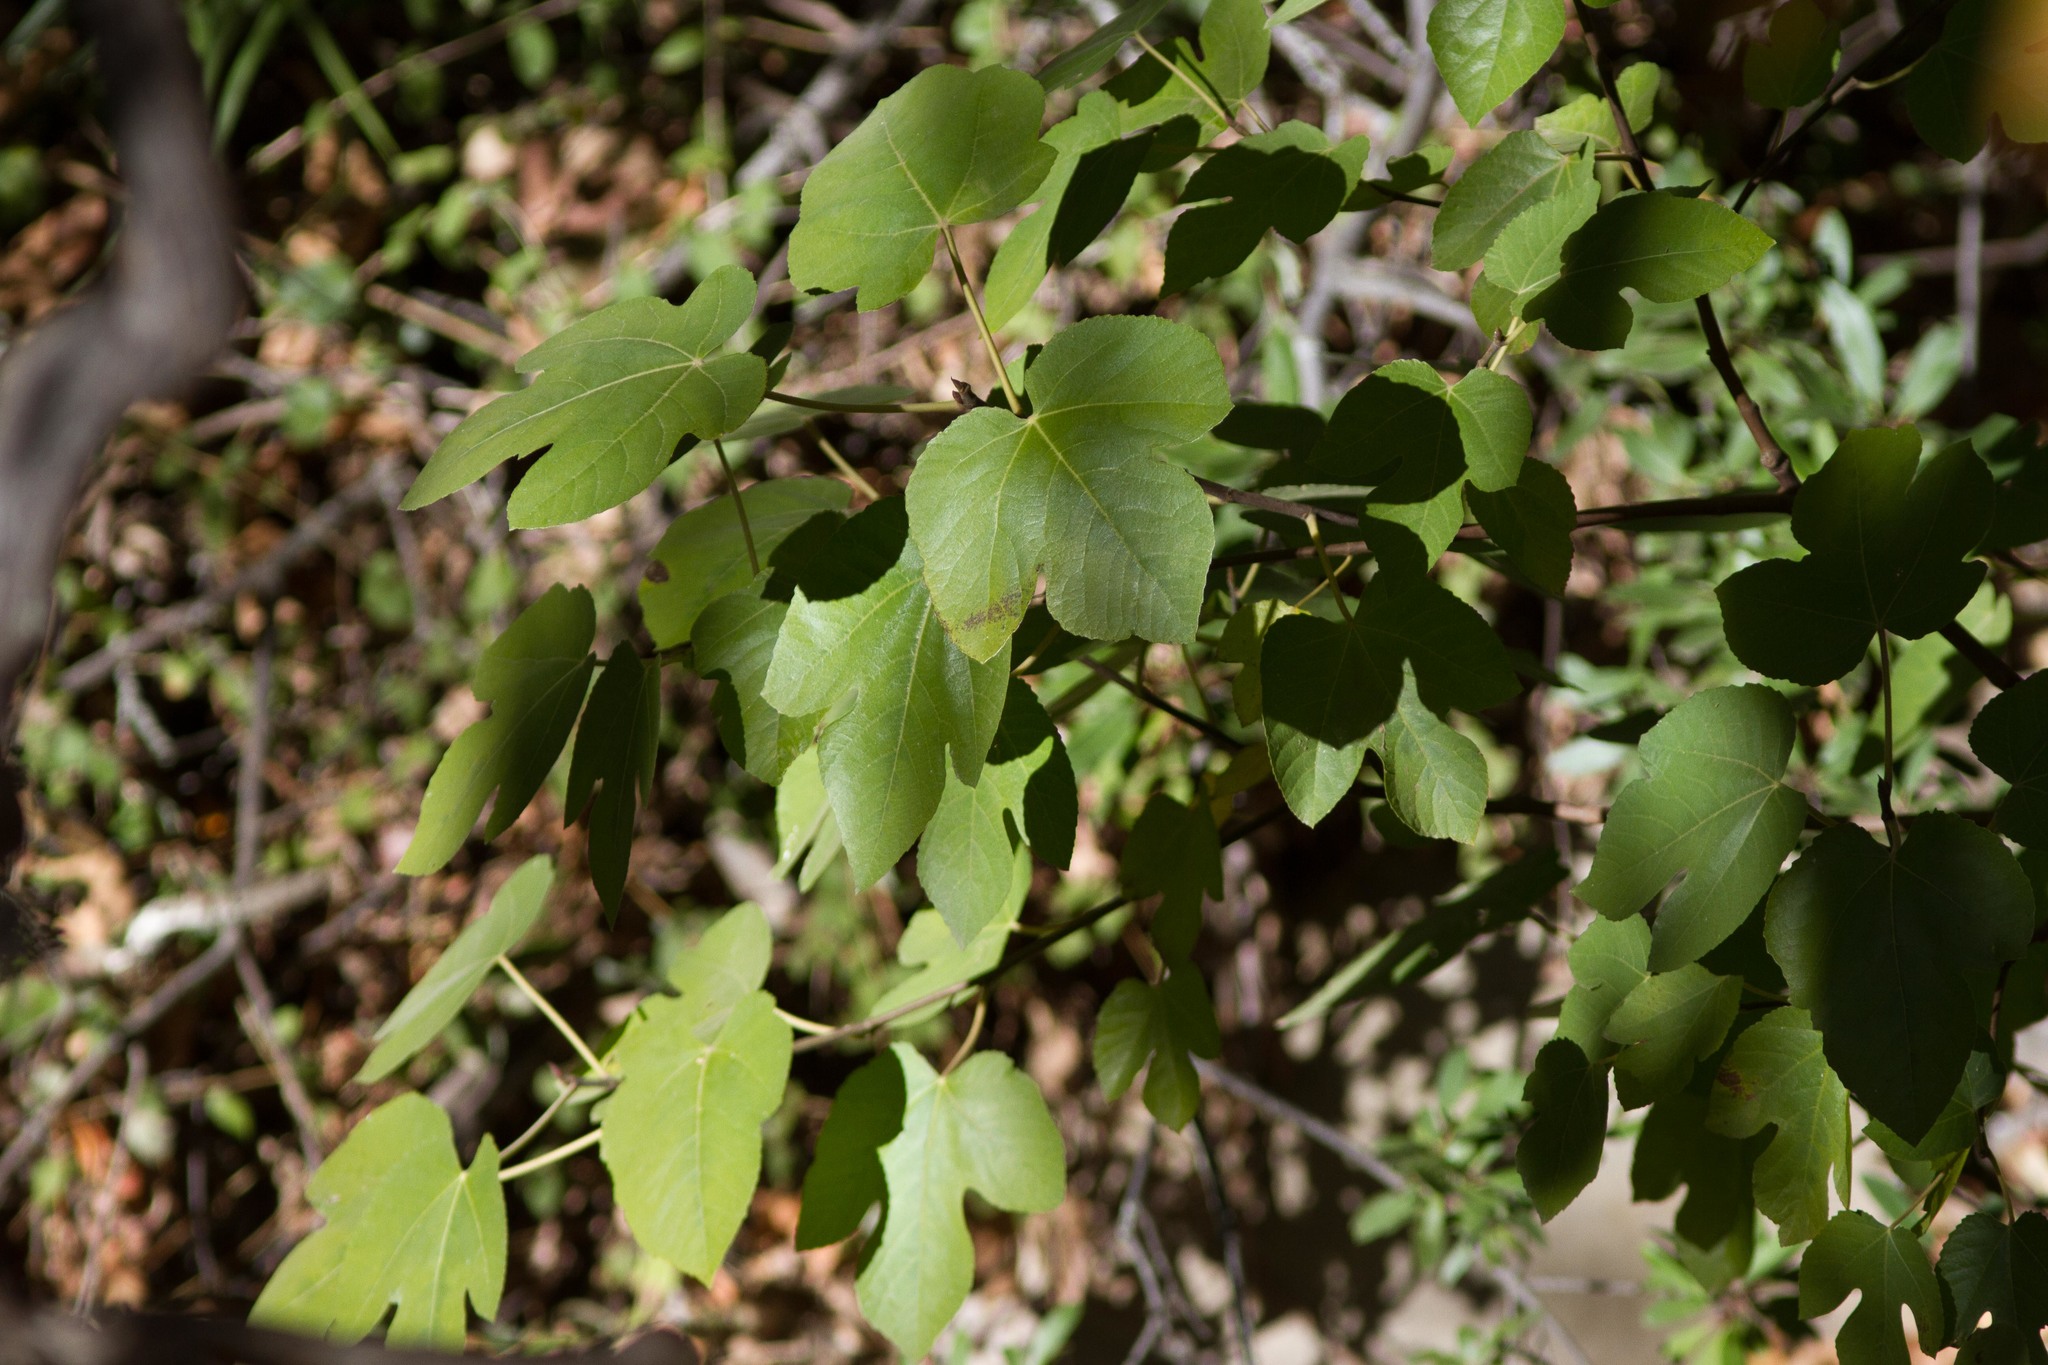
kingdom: Plantae
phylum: Tracheophyta
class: Magnoliopsida
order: Rosales
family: Moraceae
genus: Ficus
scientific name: Ficus carica
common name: Fig
